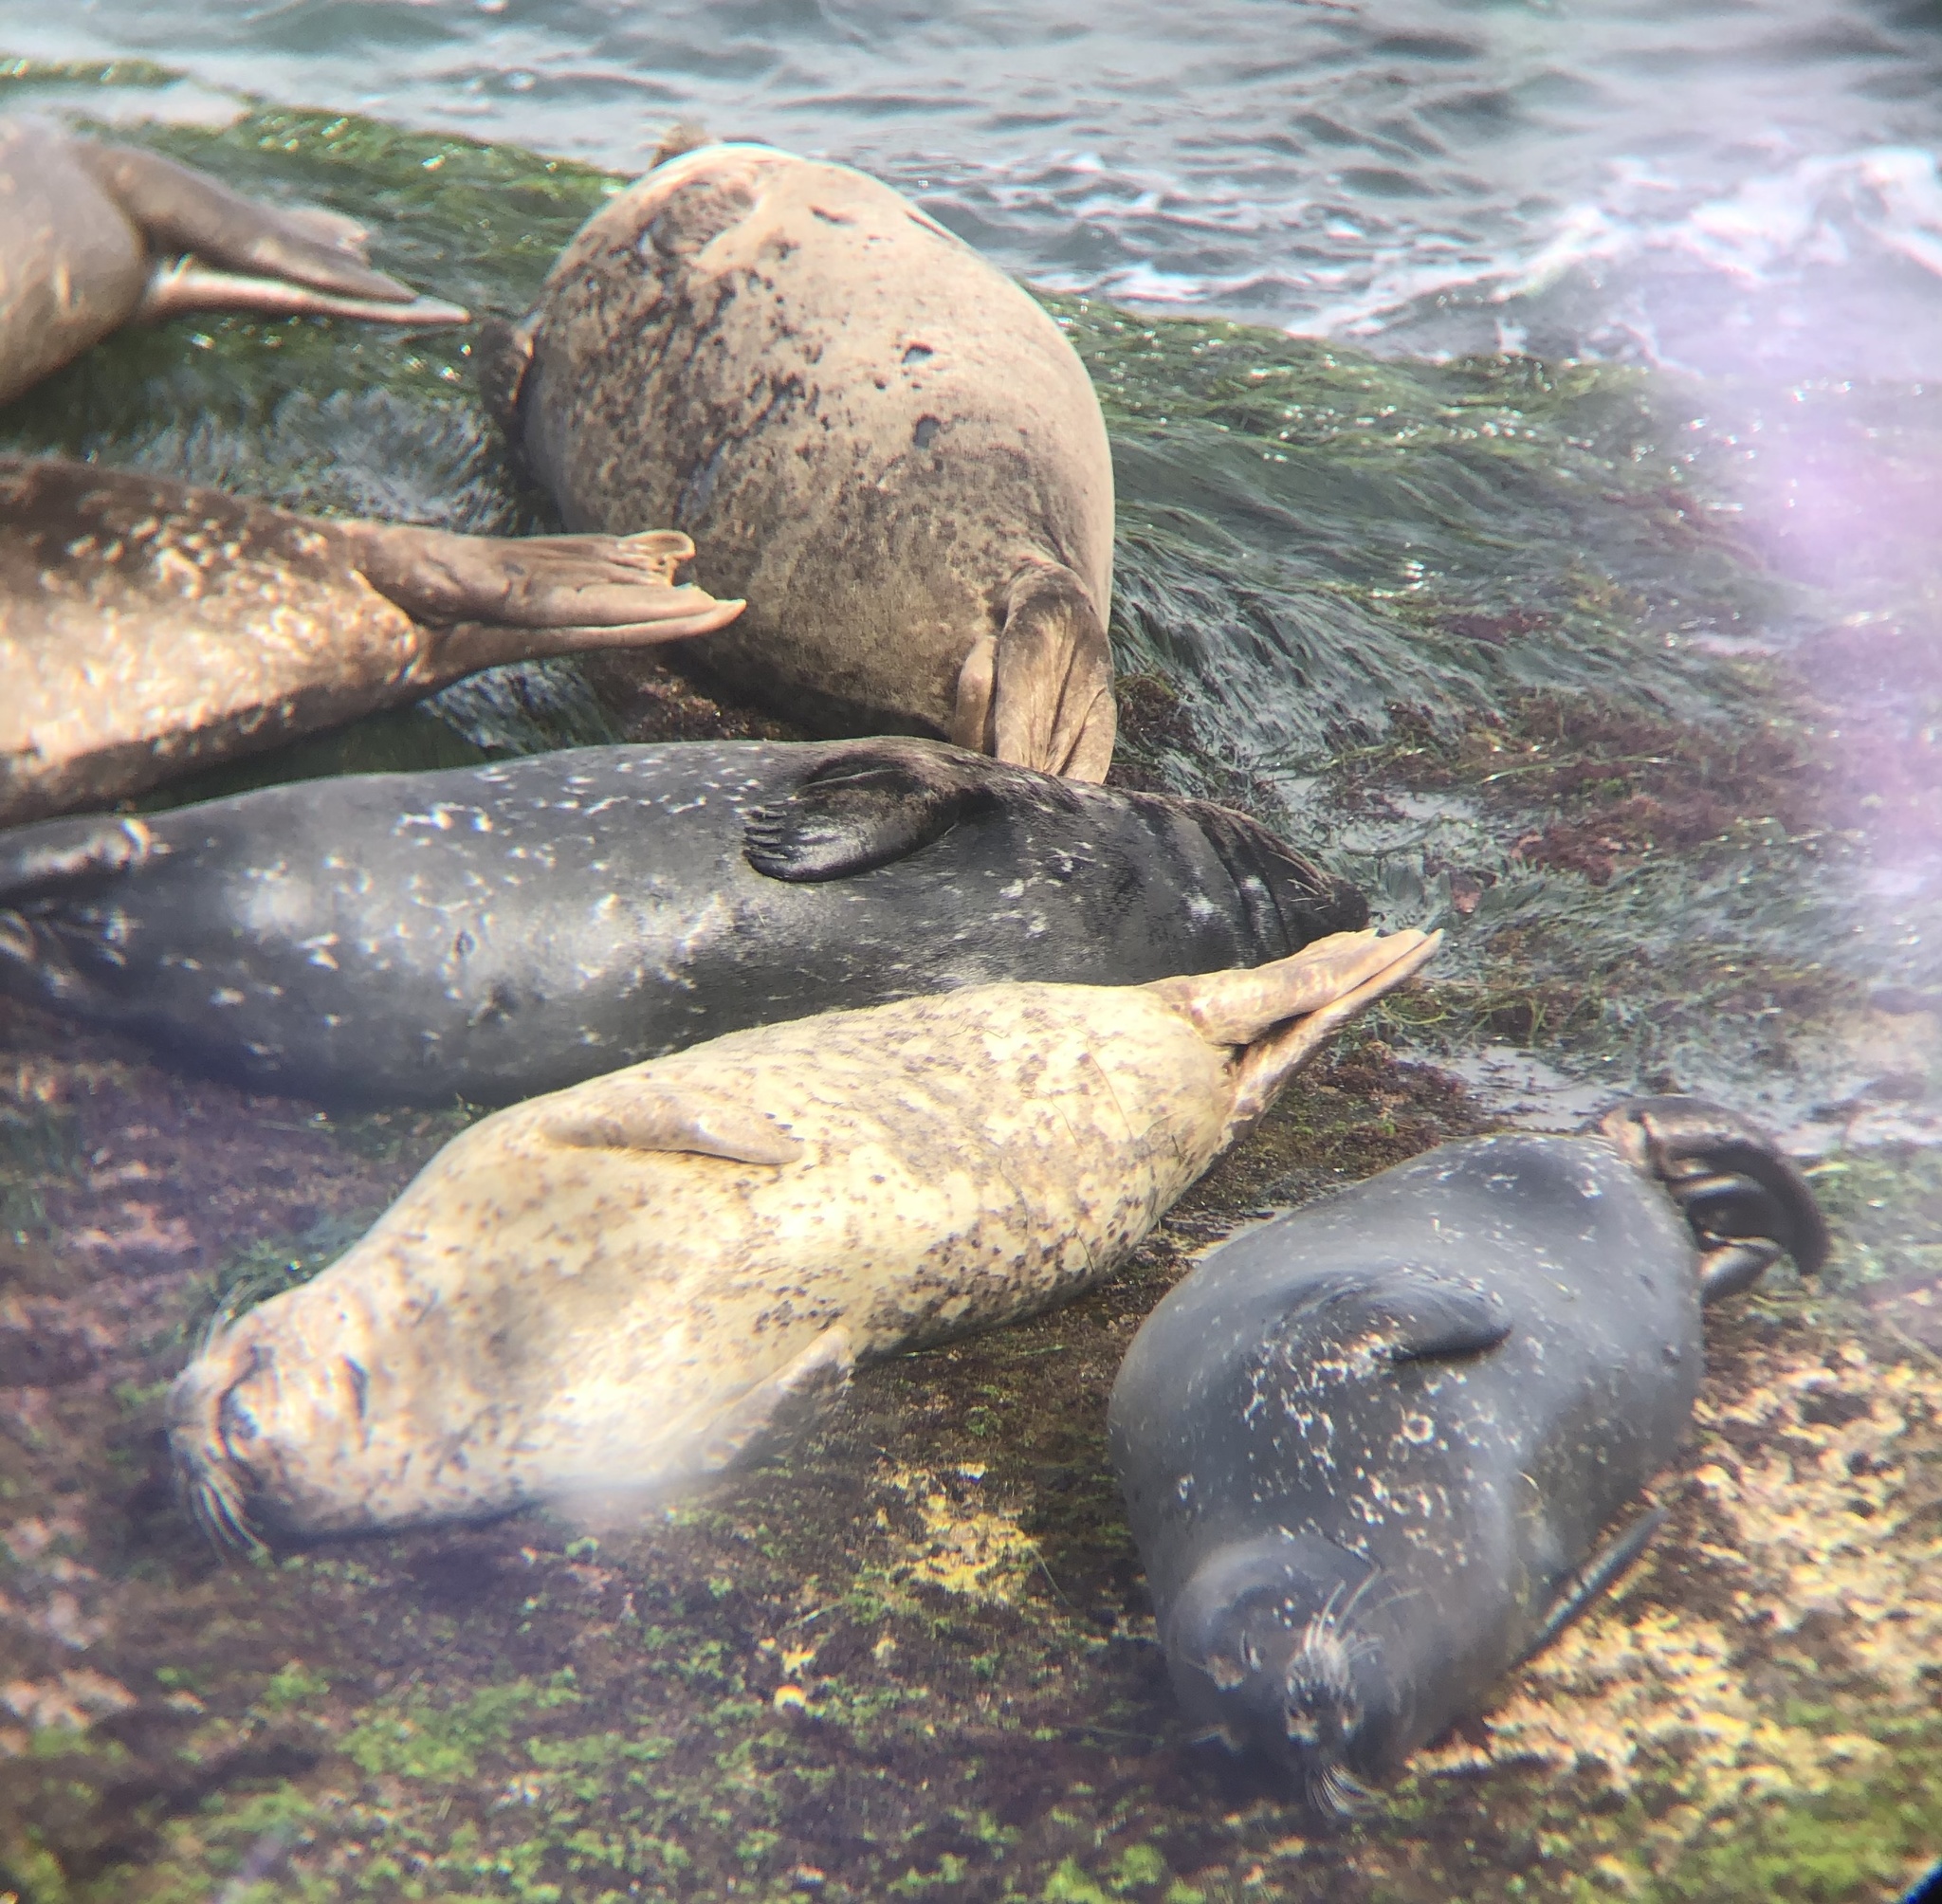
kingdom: Animalia
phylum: Chordata
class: Mammalia
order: Carnivora
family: Phocidae
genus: Phoca
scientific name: Phoca vitulina
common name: Harbor seal
